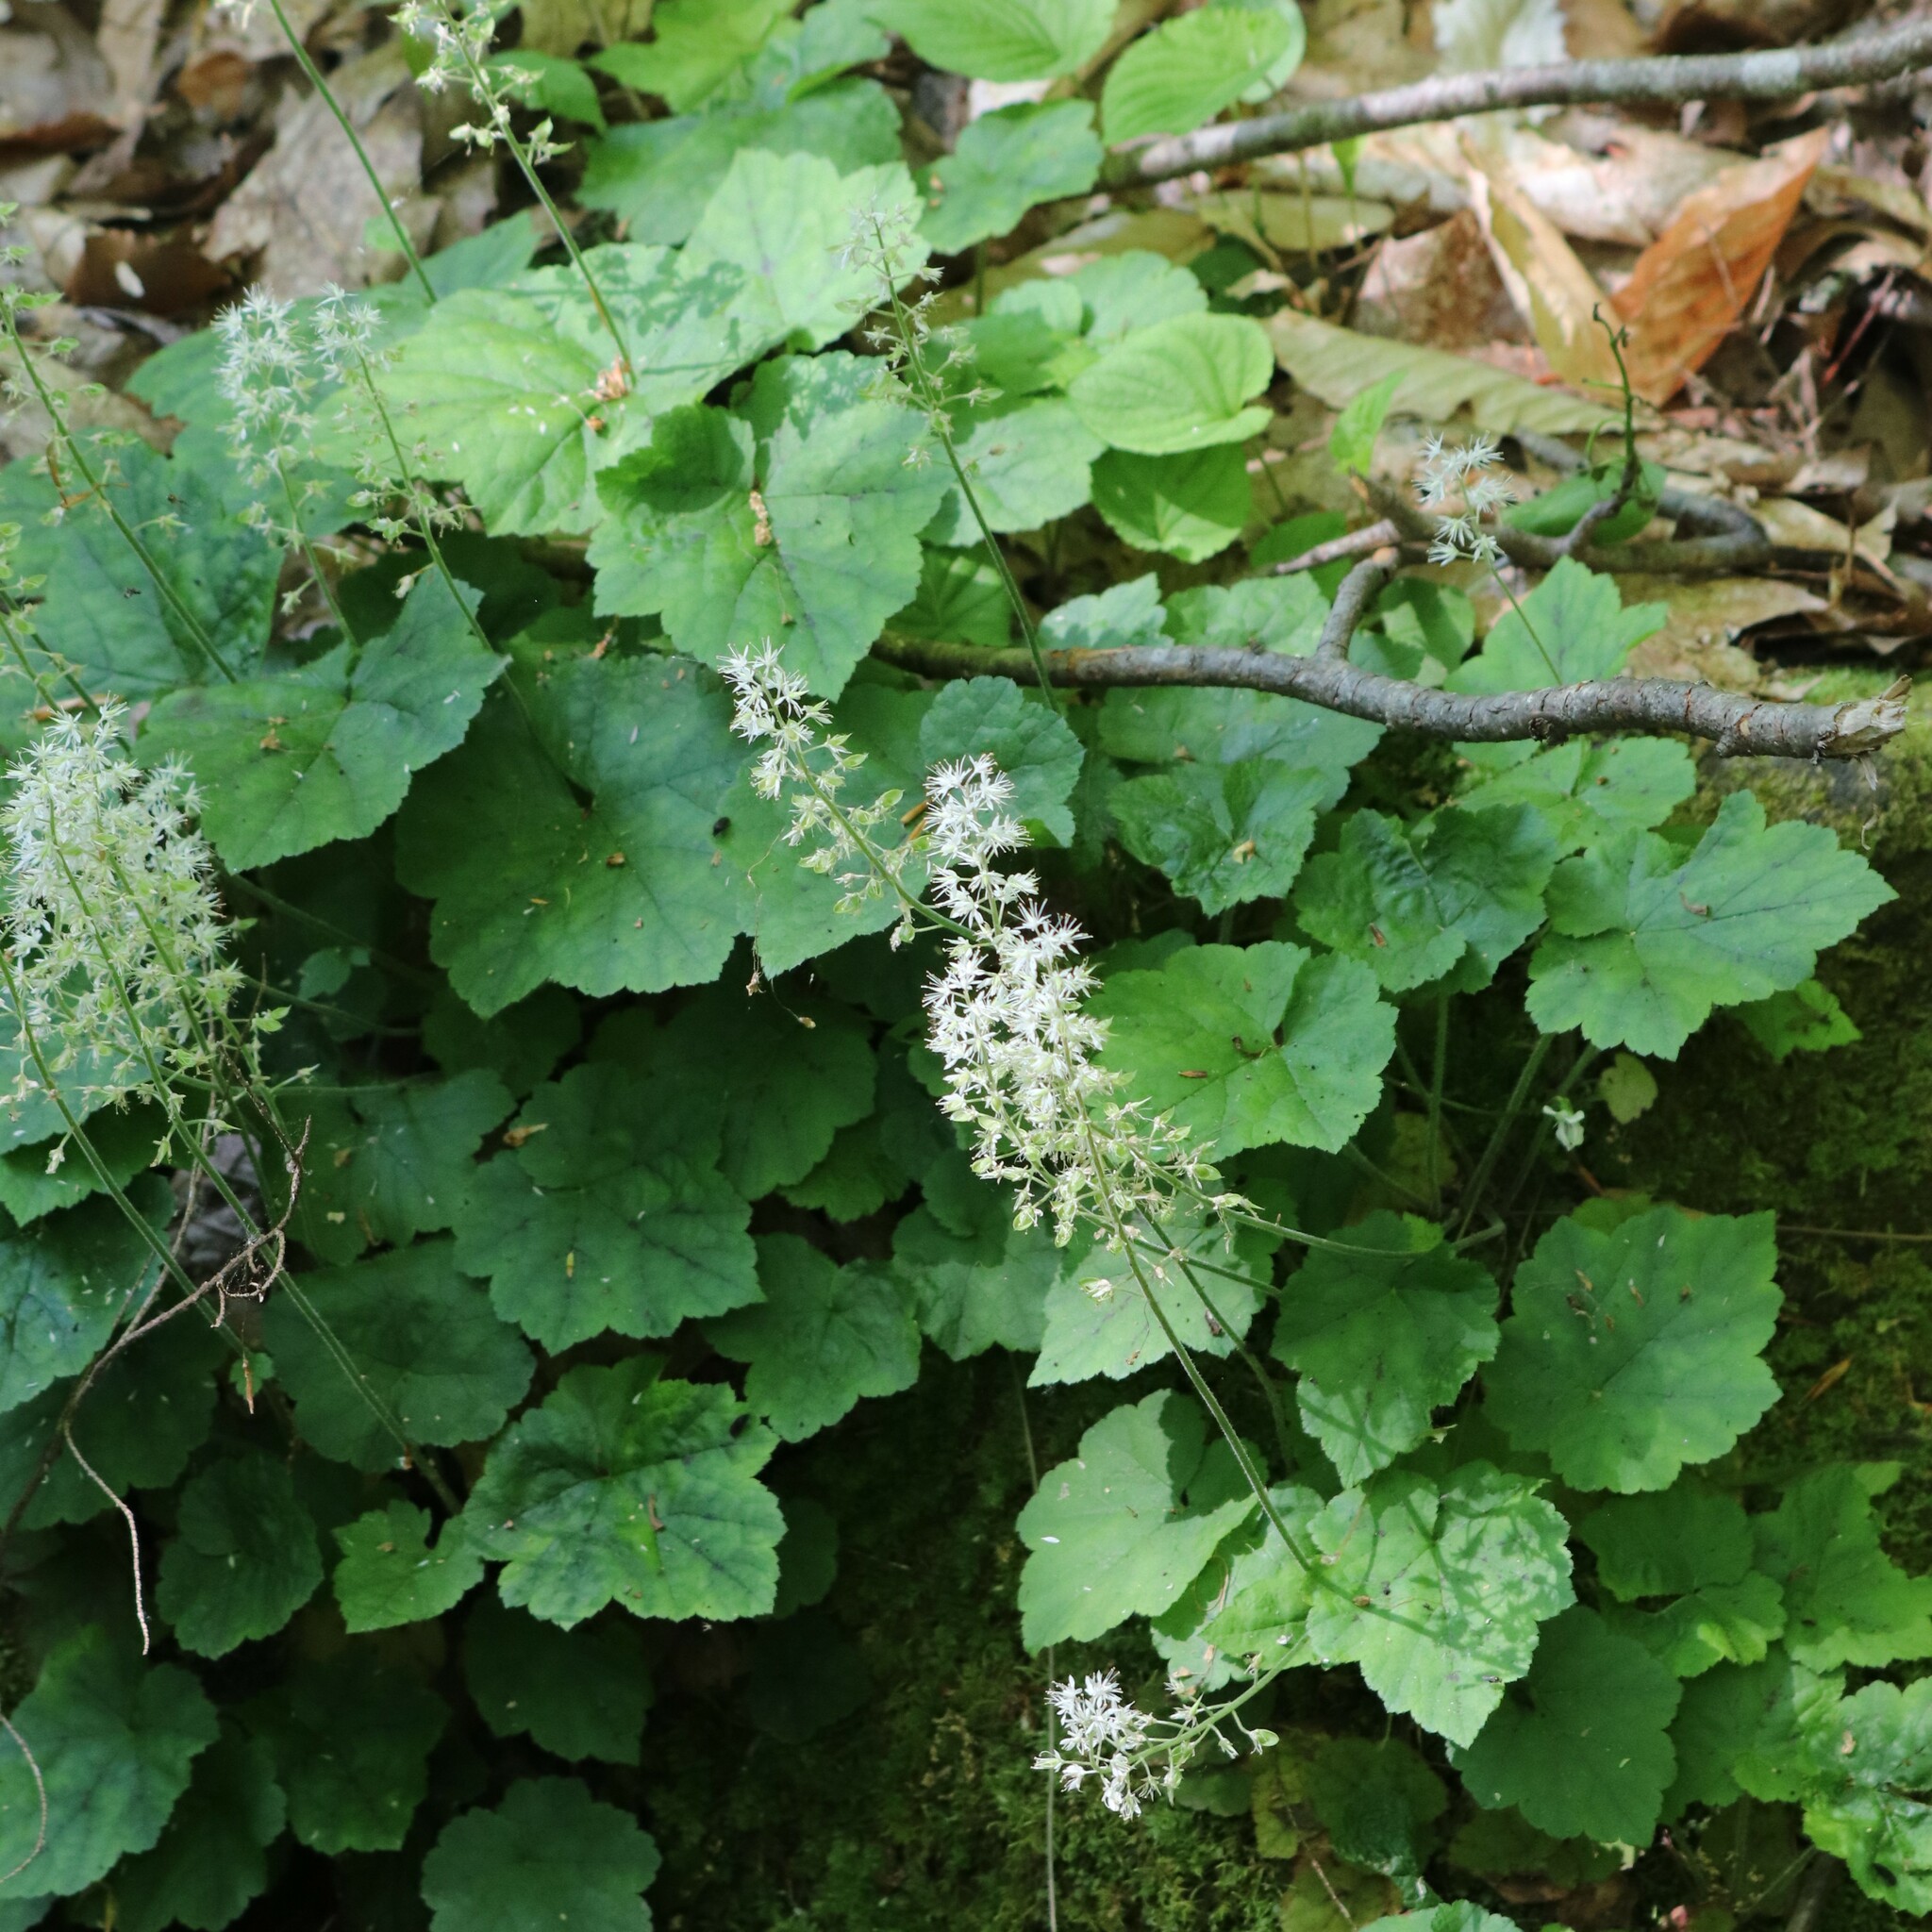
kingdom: Plantae
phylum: Tracheophyta
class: Magnoliopsida
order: Saxifragales
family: Saxifragaceae
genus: Tiarella
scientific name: Tiarella stolonifera
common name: Stoloniferous foamflower
